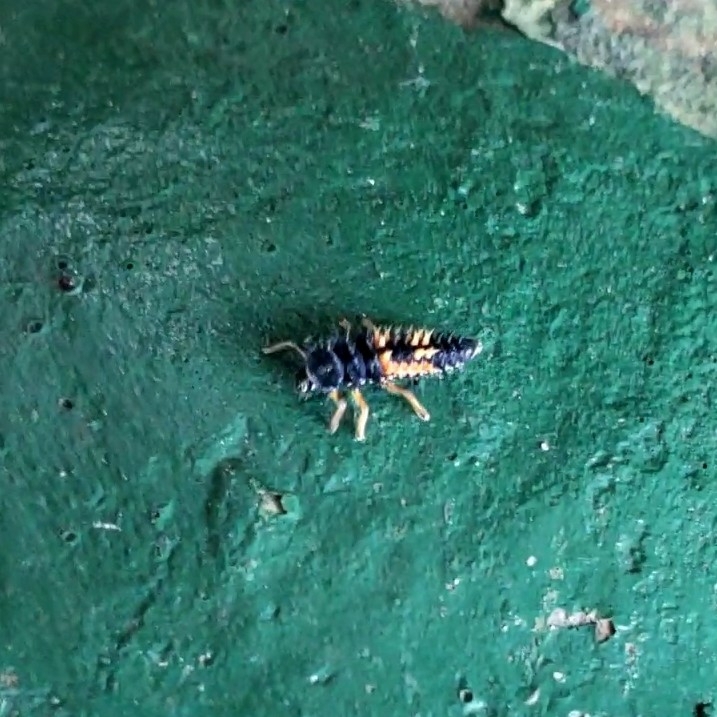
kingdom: Animalia
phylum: Arthropoda
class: Insecta
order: Coleoptera
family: Coccinellidae
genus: Harmonia
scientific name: Harmonia axyridis
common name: Harlequin ladybird
